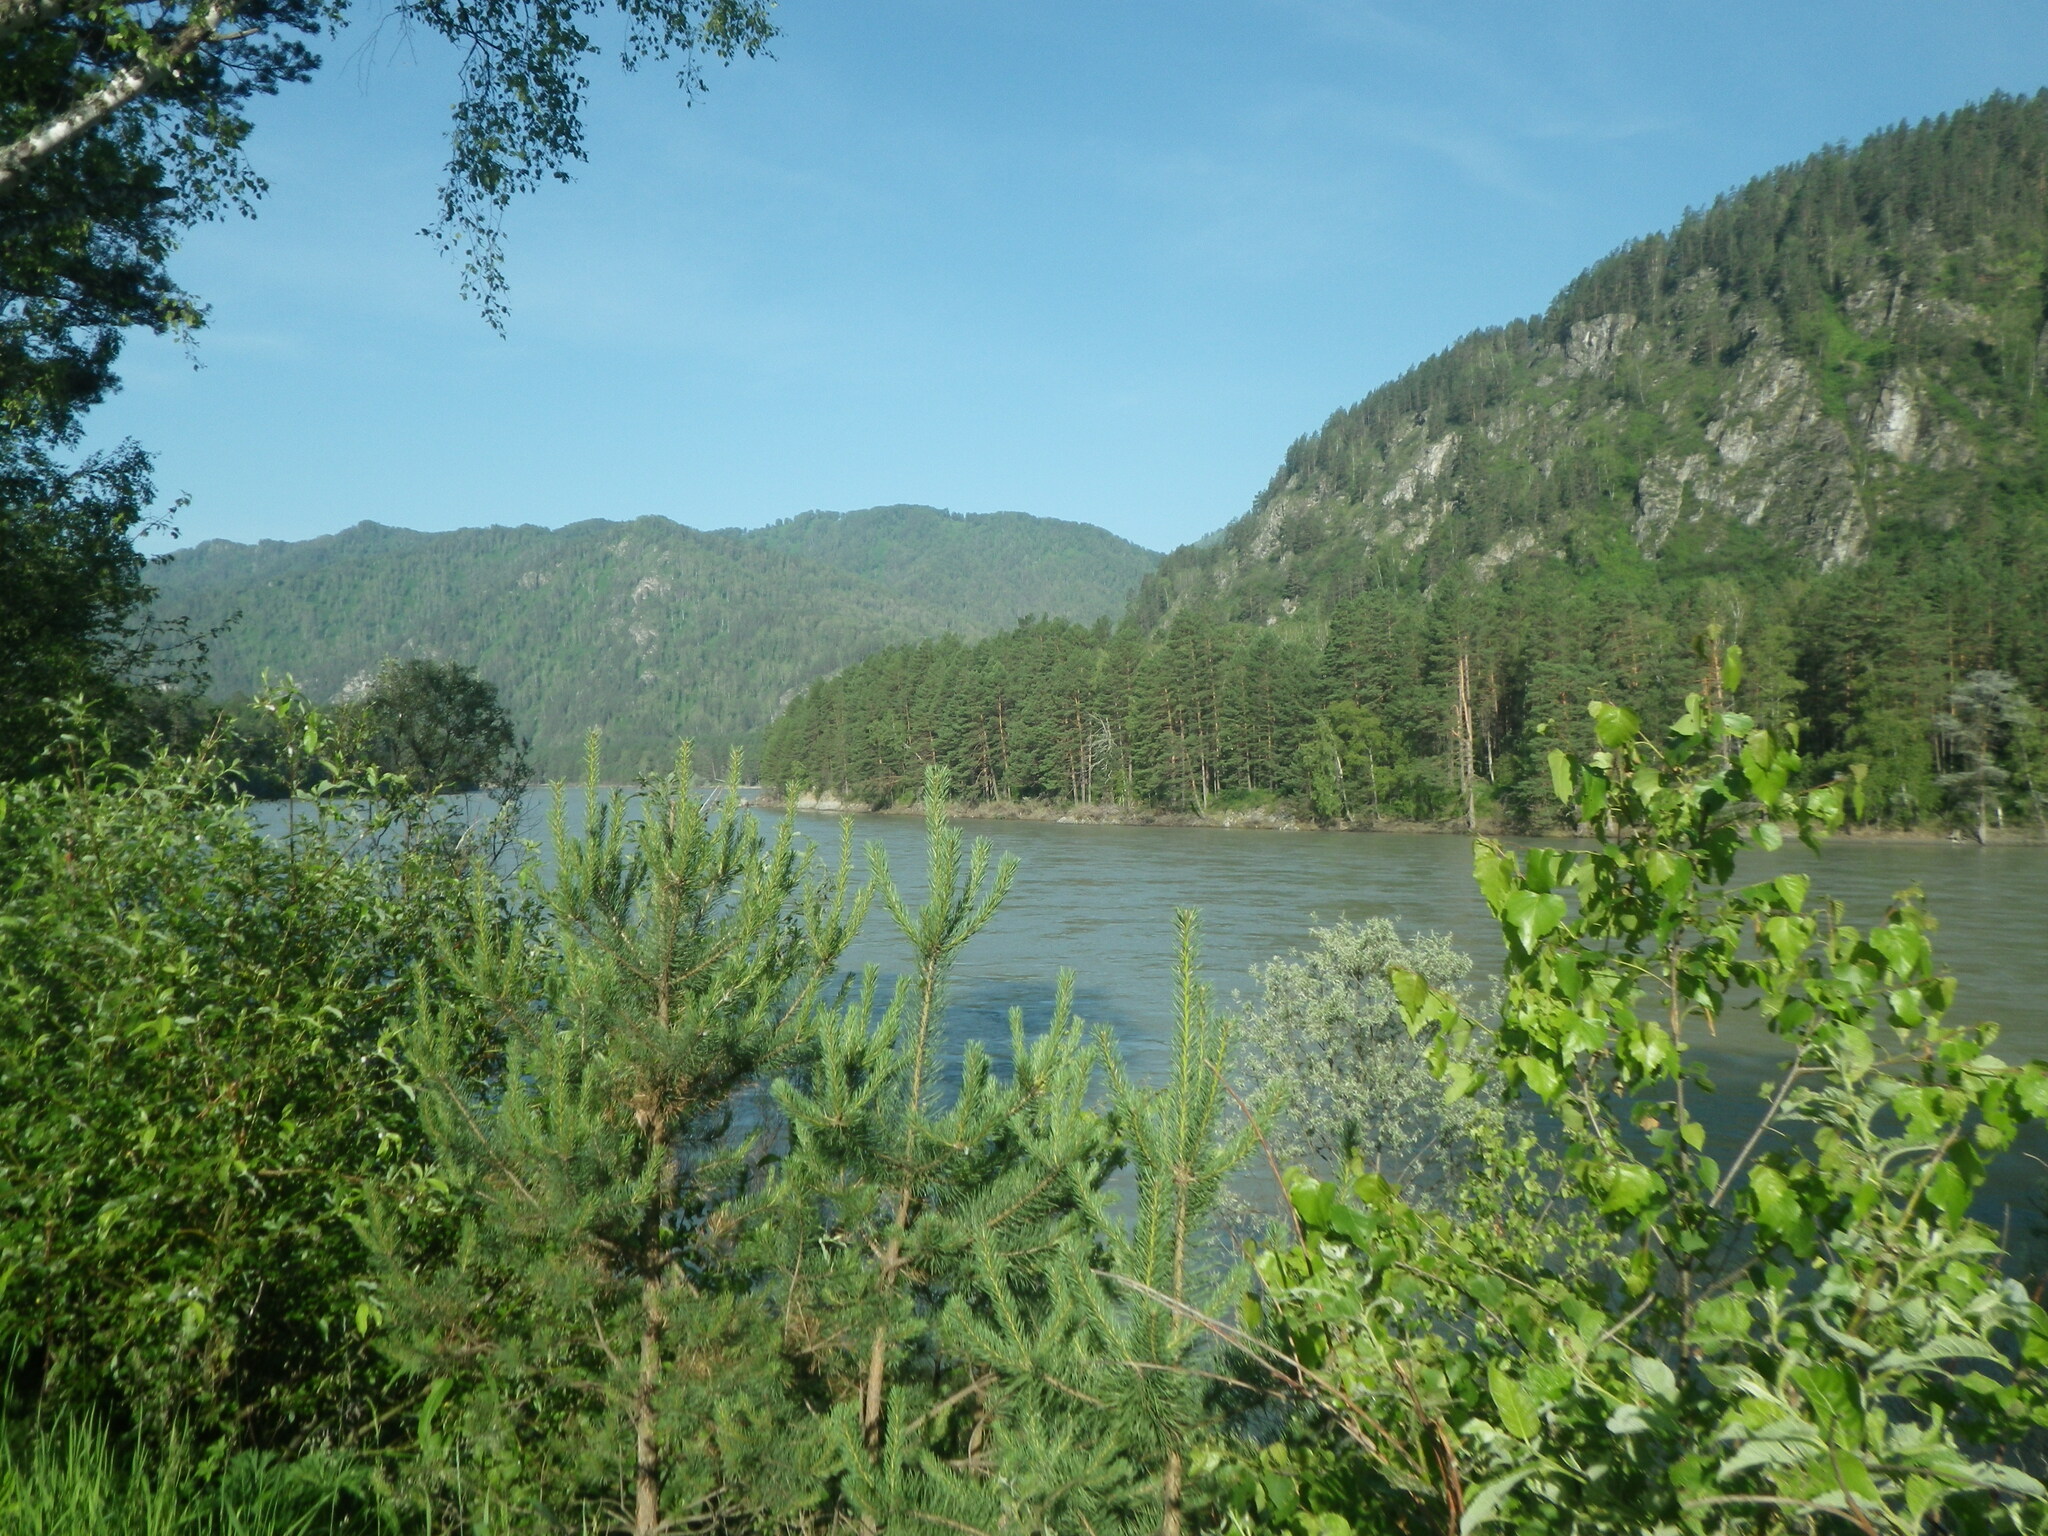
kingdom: Plantae
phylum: Tracheophyta
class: Pinopsida
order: Pinales
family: Pinaceae
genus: Pinus
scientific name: Pinus sylvestris
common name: Scots pine
